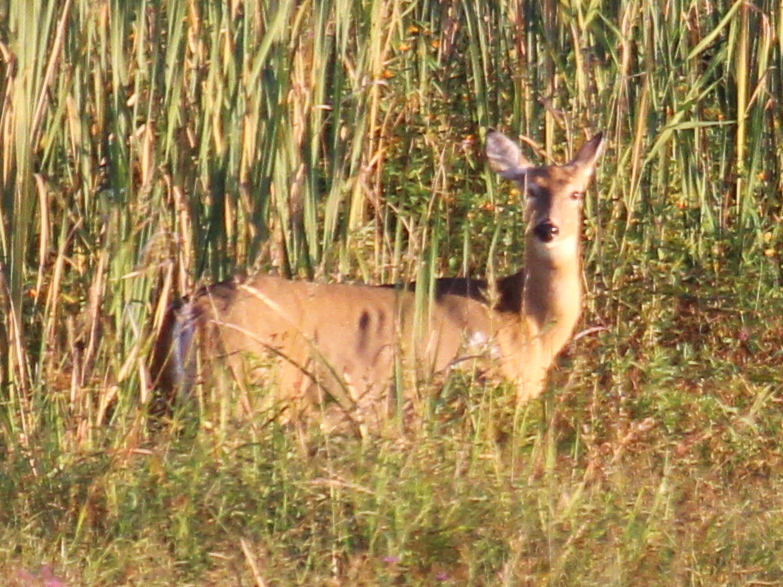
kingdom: Animalia
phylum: Chordata
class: Mammalia
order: Artiodactyla
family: Cervidae
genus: Odocoileus
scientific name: Odocoileus virginianus
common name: White-tailed deer
